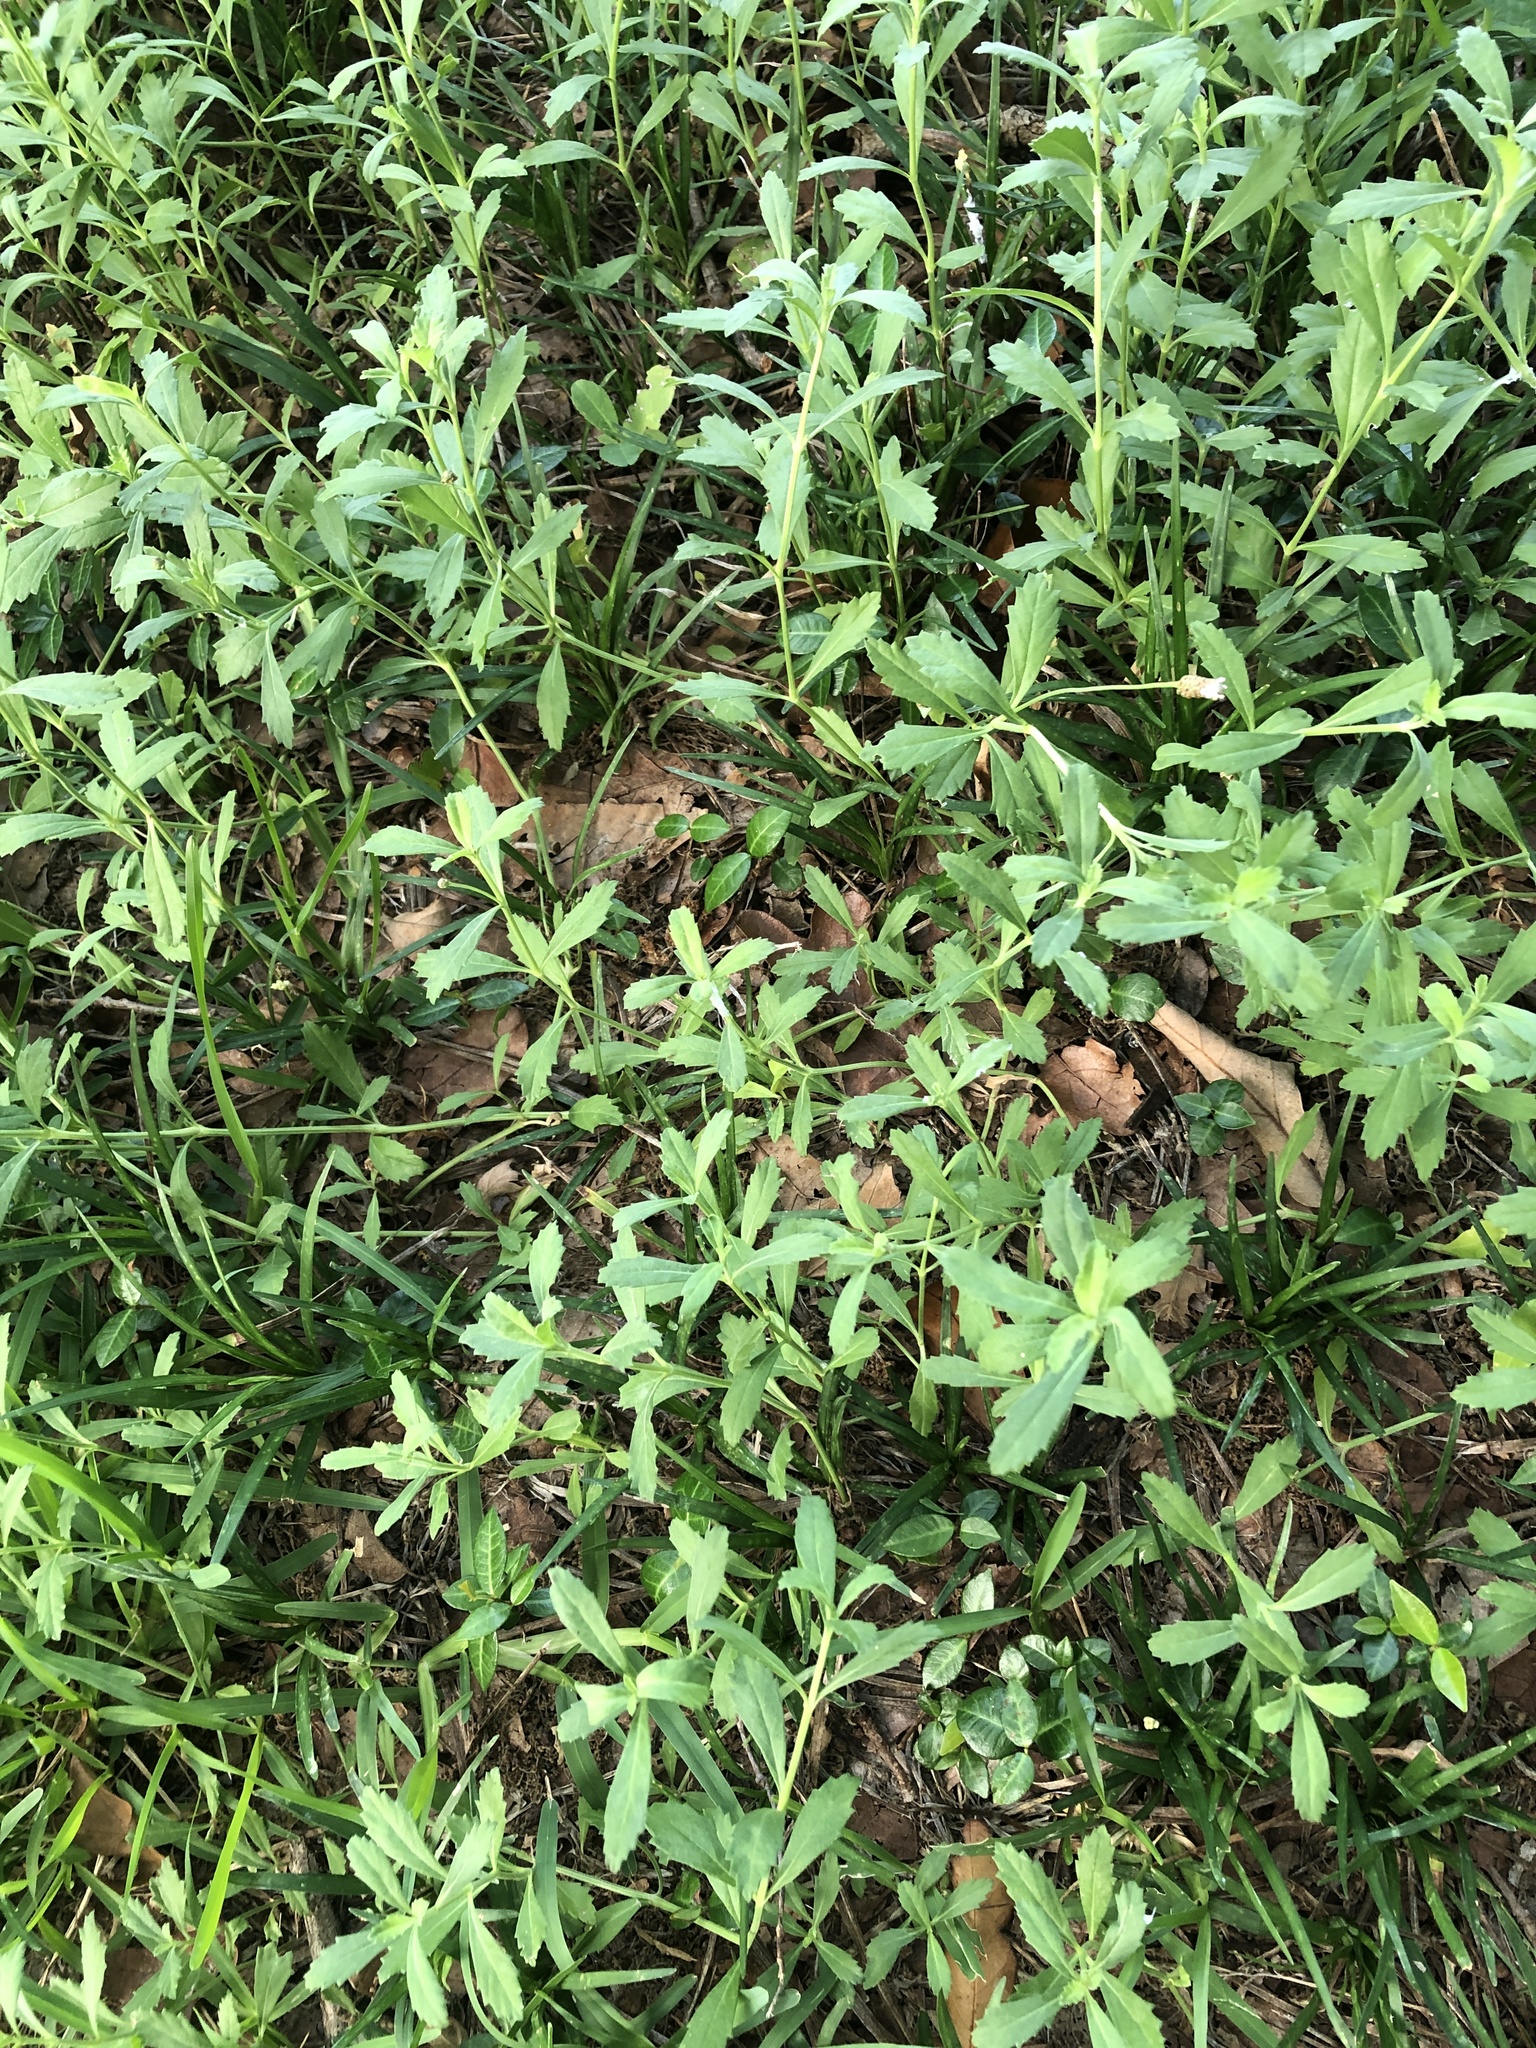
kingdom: Plantae
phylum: Tracheophyta
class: Magnoliopsida
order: Lamiales
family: Verbenaceae
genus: Phyla
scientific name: Phyla nodiflora
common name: Frogfruit
